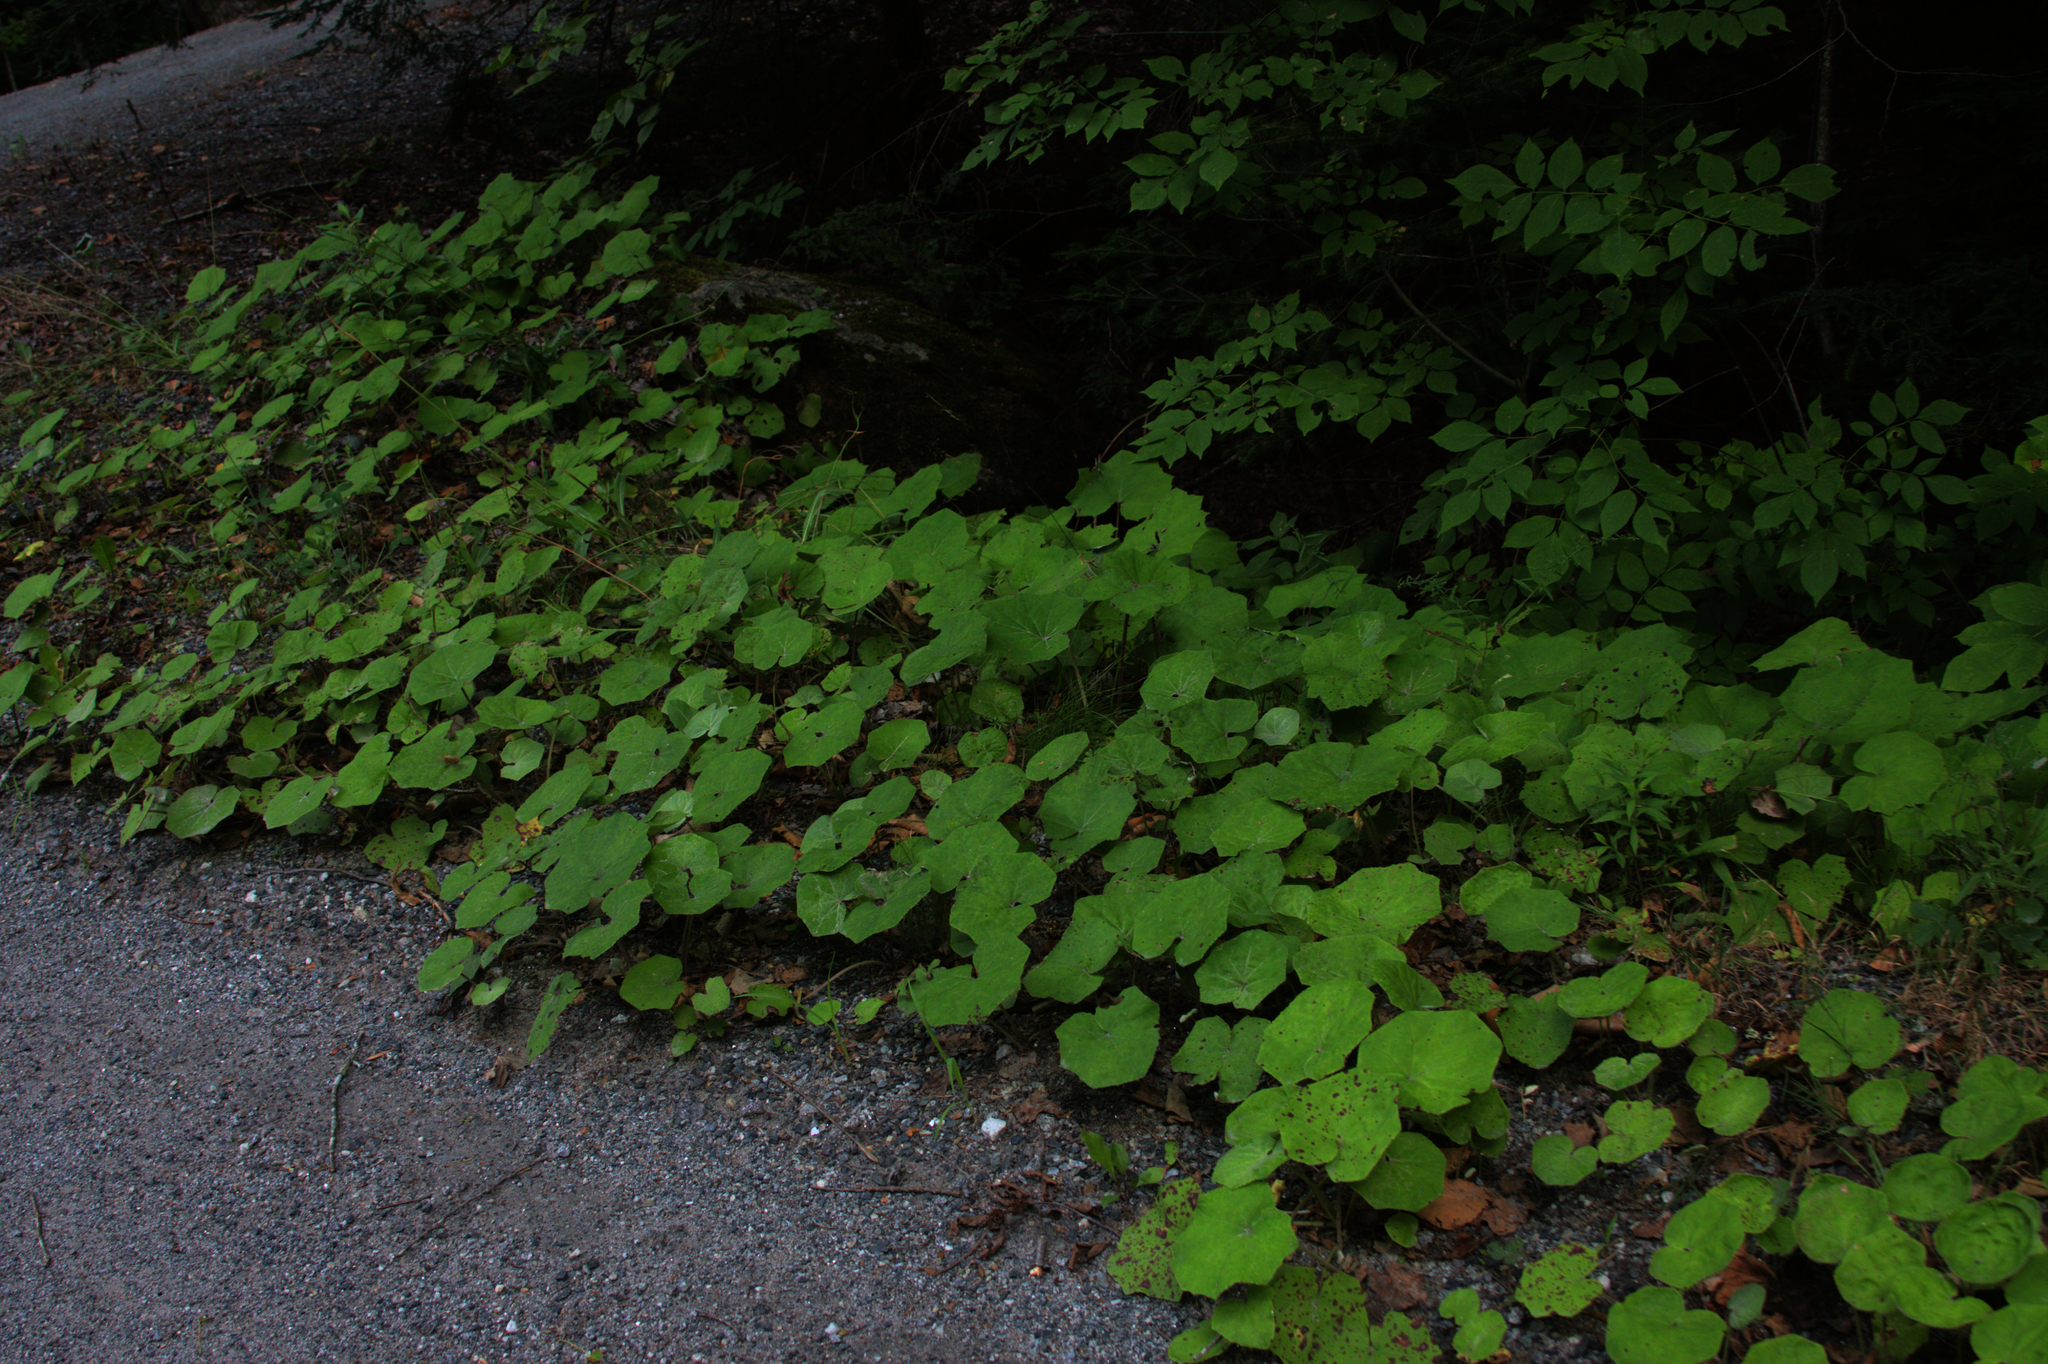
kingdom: Plantae
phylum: Tracheophyta
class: Magnoliopsida
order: Asterales
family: Asteraceae
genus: Tussilago
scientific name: Tussilago farfara
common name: Coltsfoot
